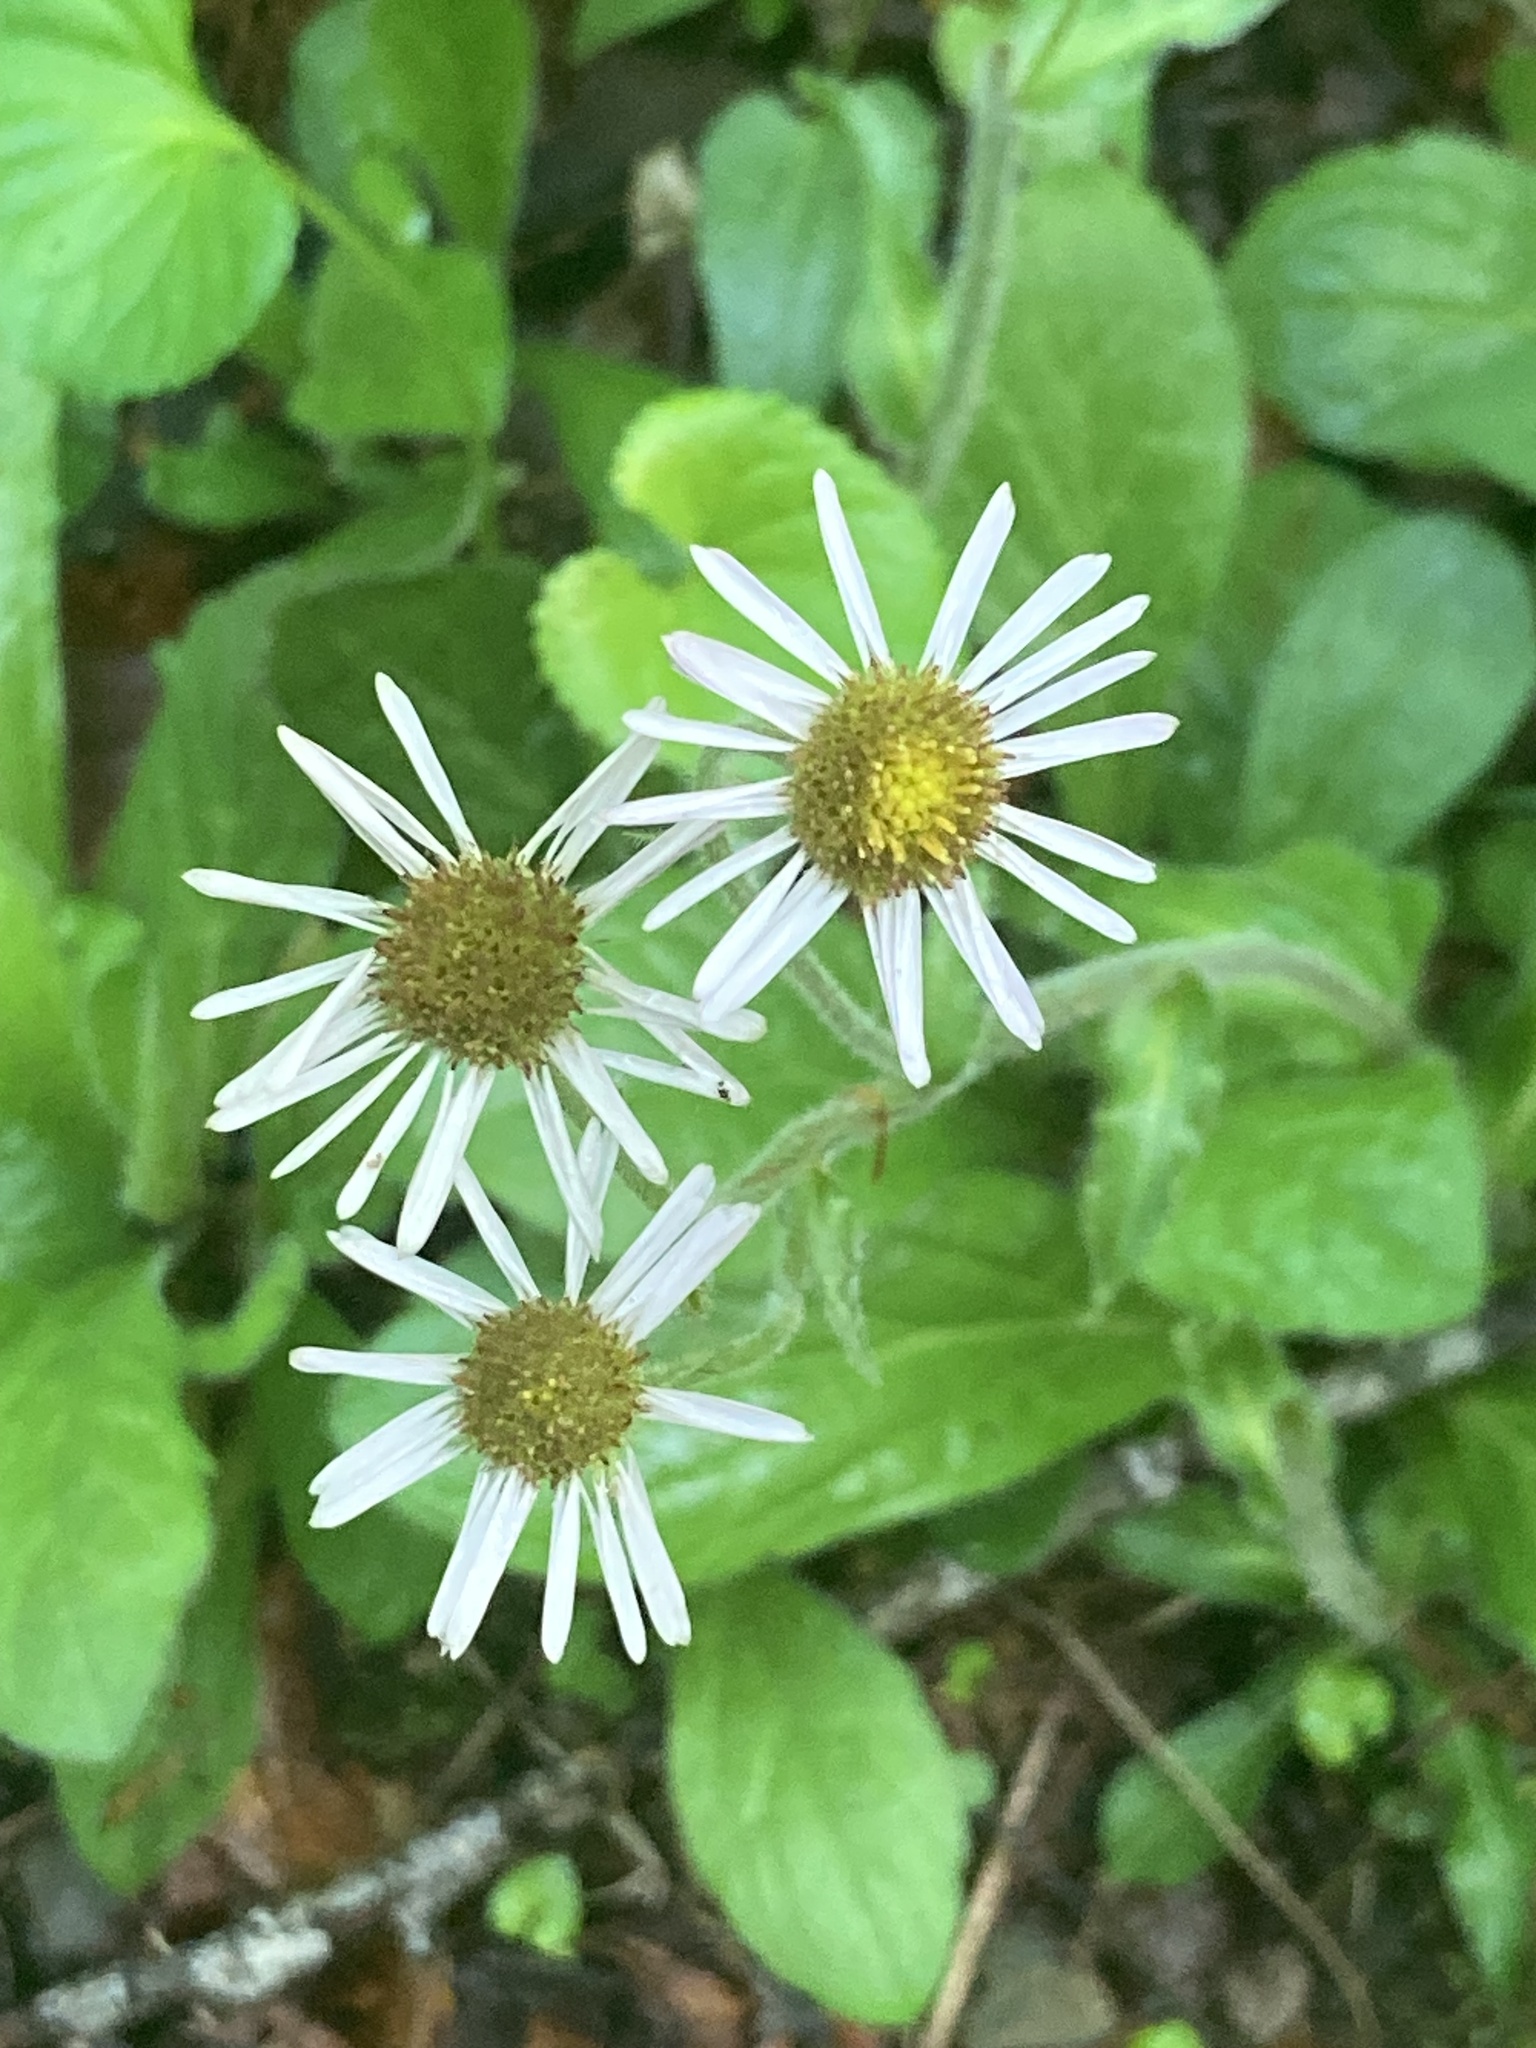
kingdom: Plantae
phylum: Tracheophyta
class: Magnoliopsida
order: Asterales
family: Asteraceae
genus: Erigeron
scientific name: Erigeron pulchellus
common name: Hairy fleabane
